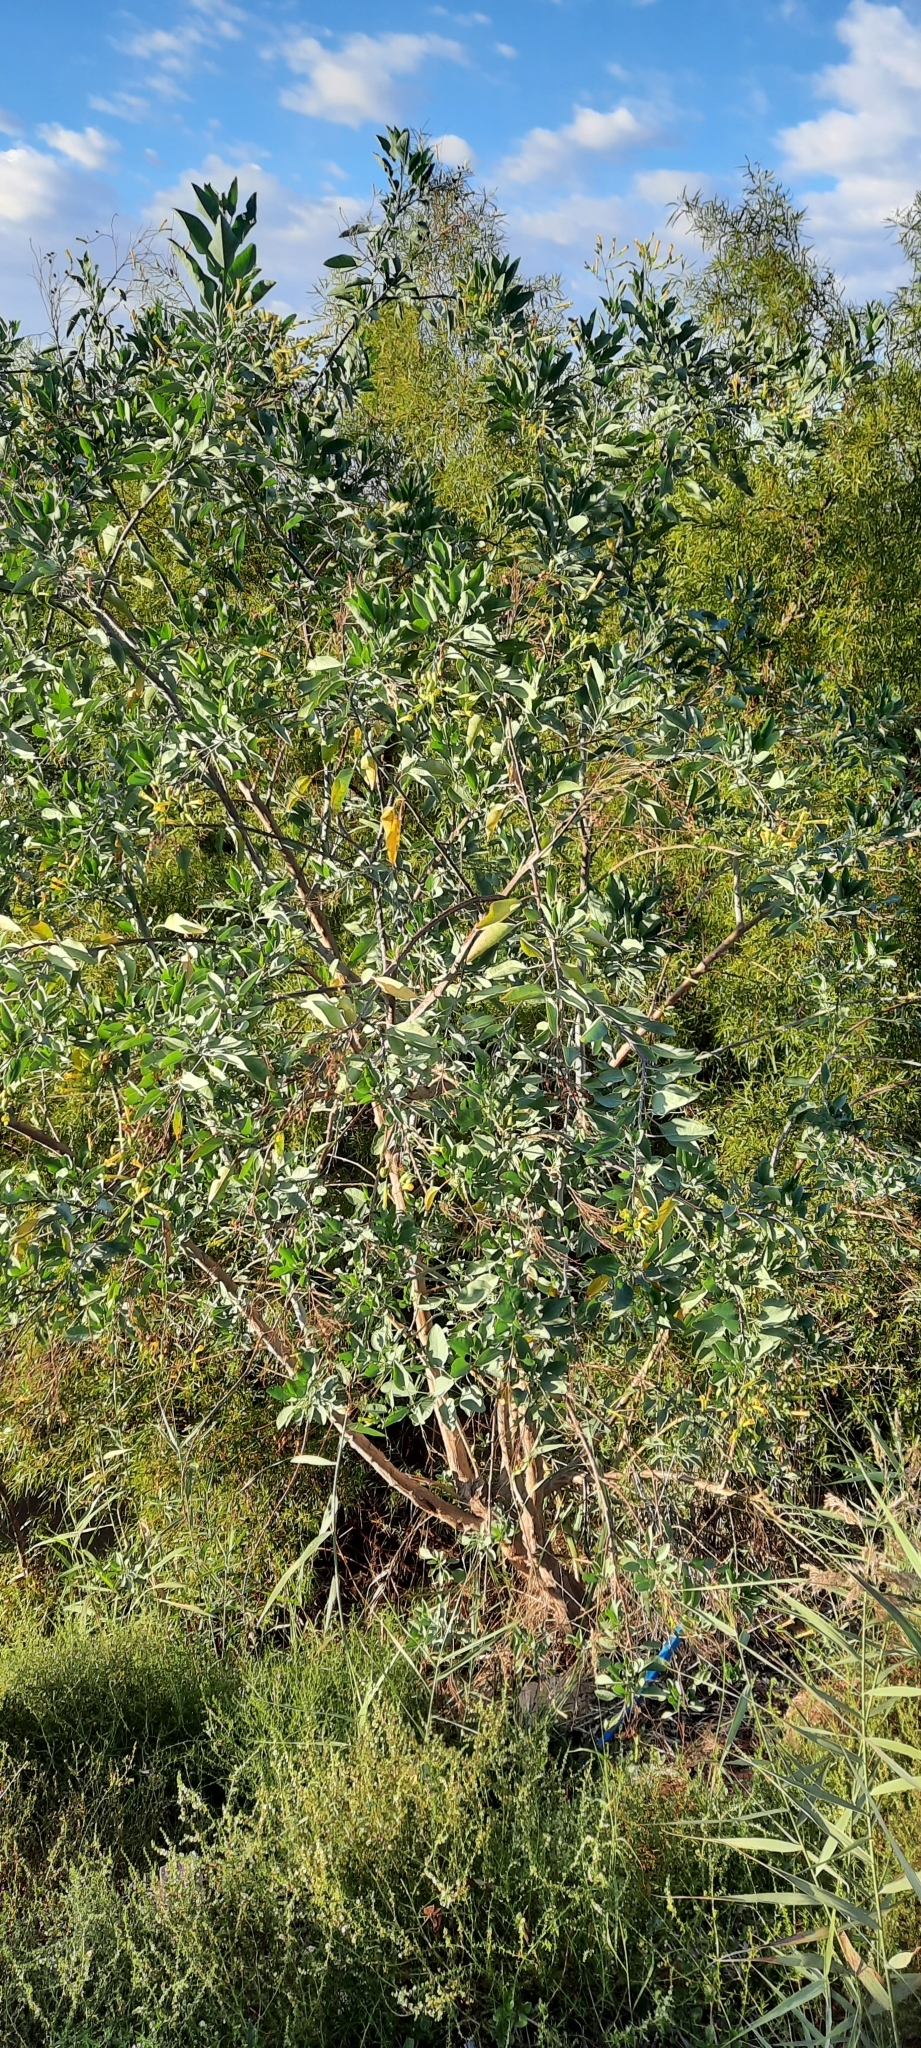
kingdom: Plantae
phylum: Tracheophyta
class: Magnoliopsida
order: Solanales
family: Solanaceae
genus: Nicotiana
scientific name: Nicotiana glauca
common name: Tree tobacco
